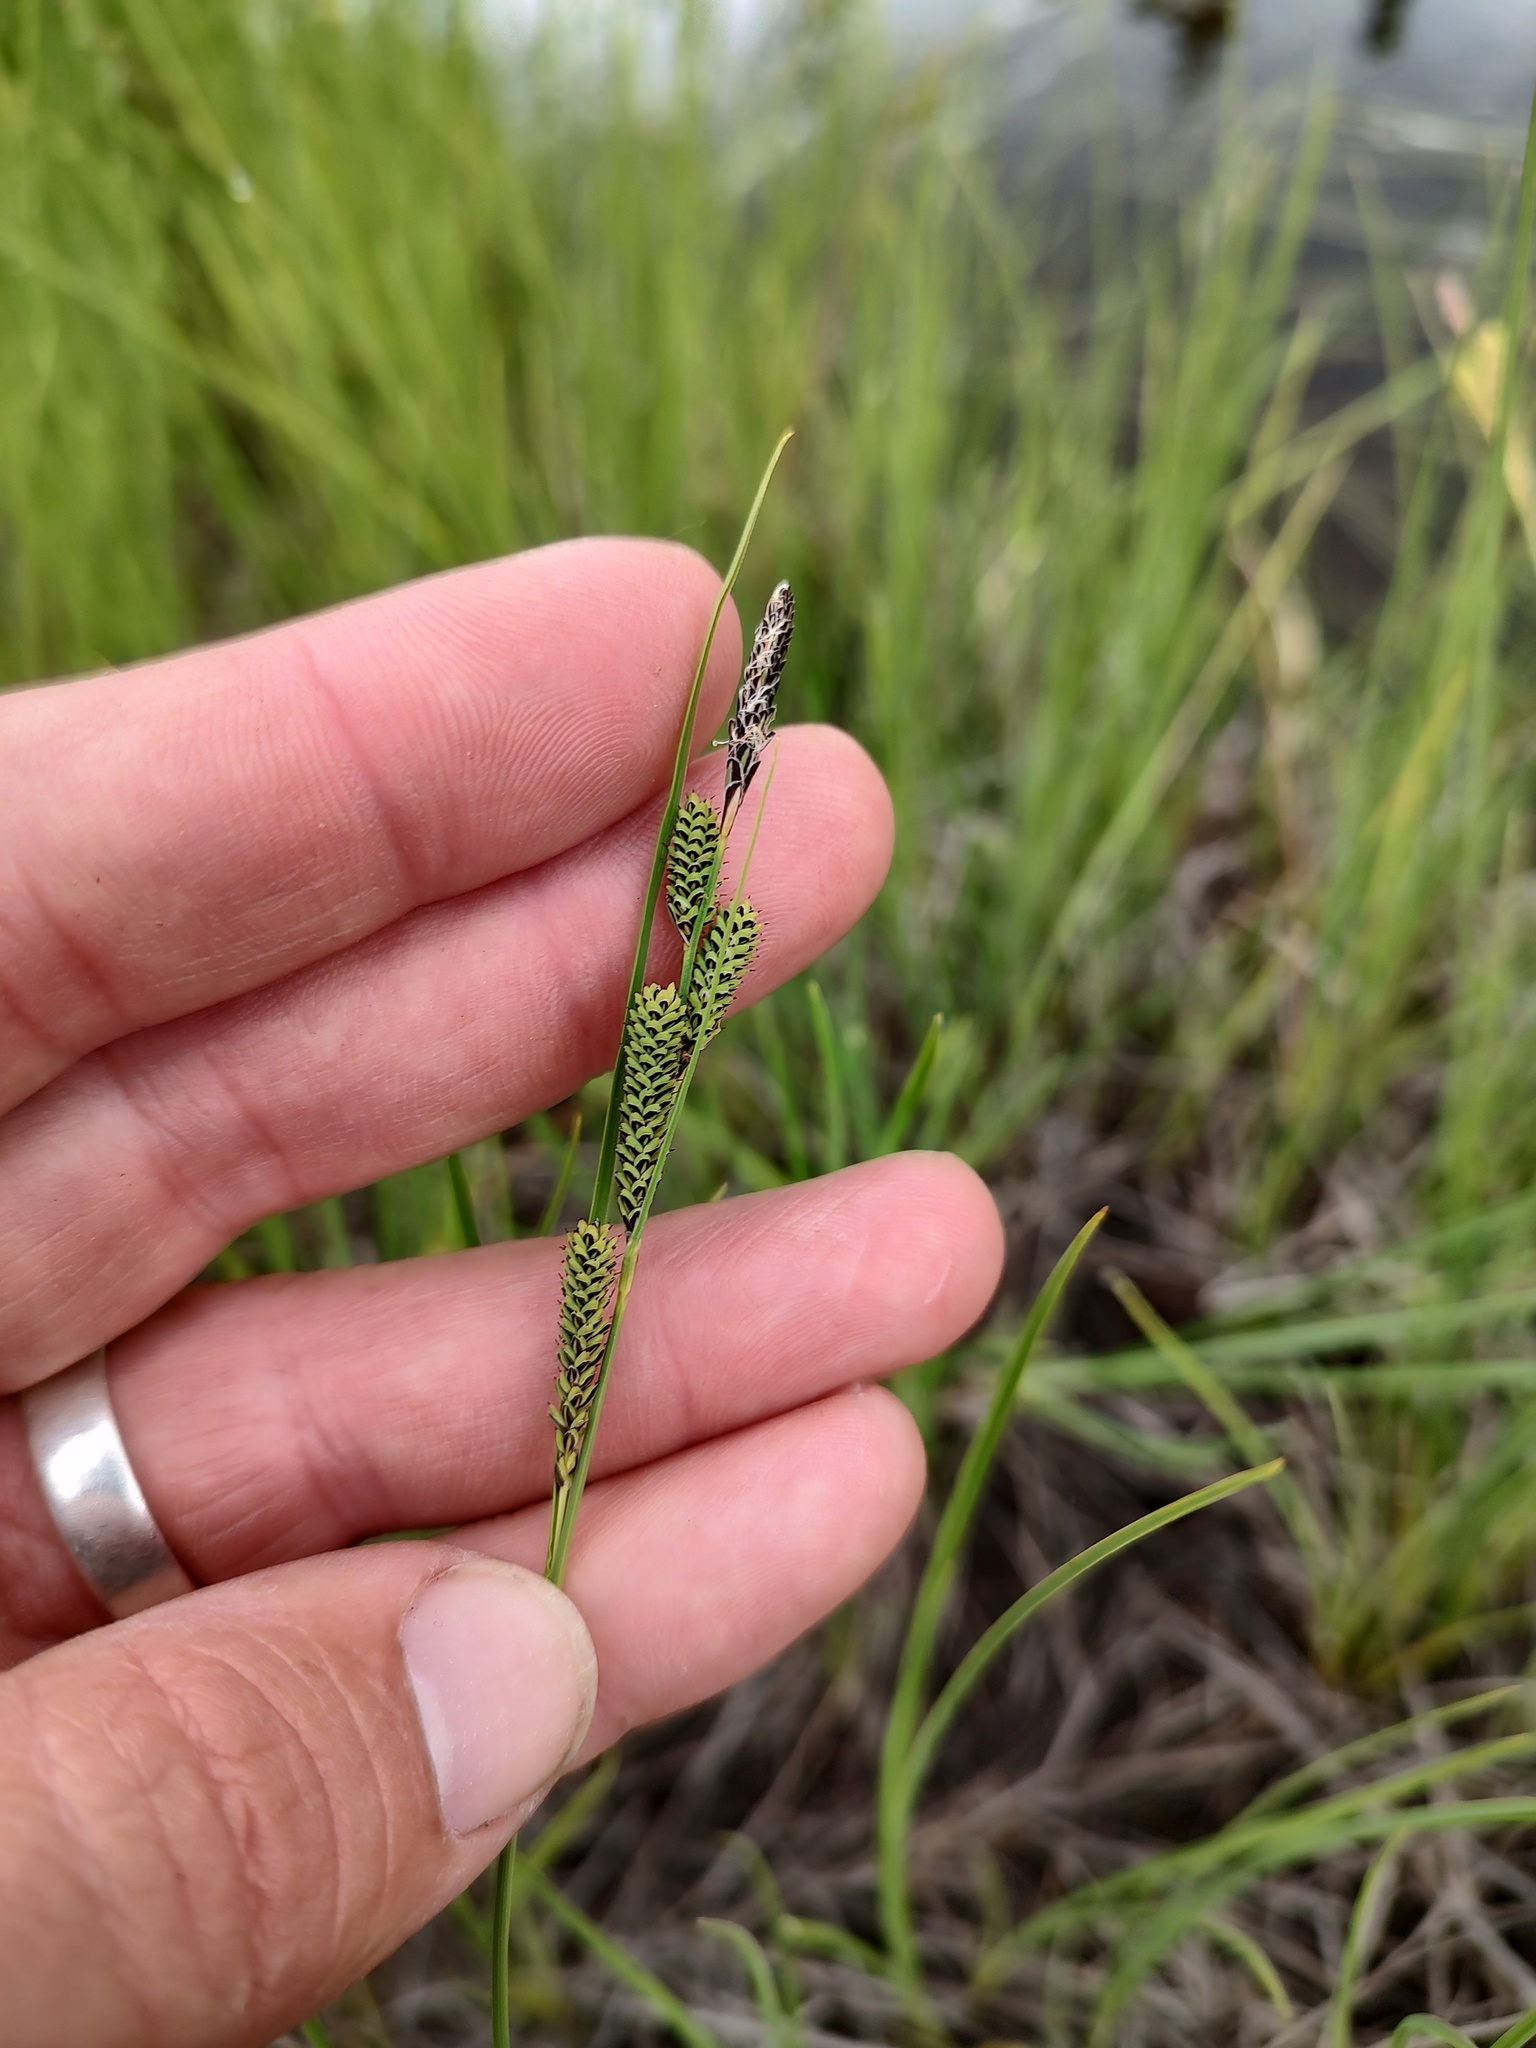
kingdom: Plantae
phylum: Tracheophyta
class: Liliopsida
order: Poales
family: Cyperaceae
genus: Carex
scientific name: Carex kelloggii
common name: Kellogg's sedge
